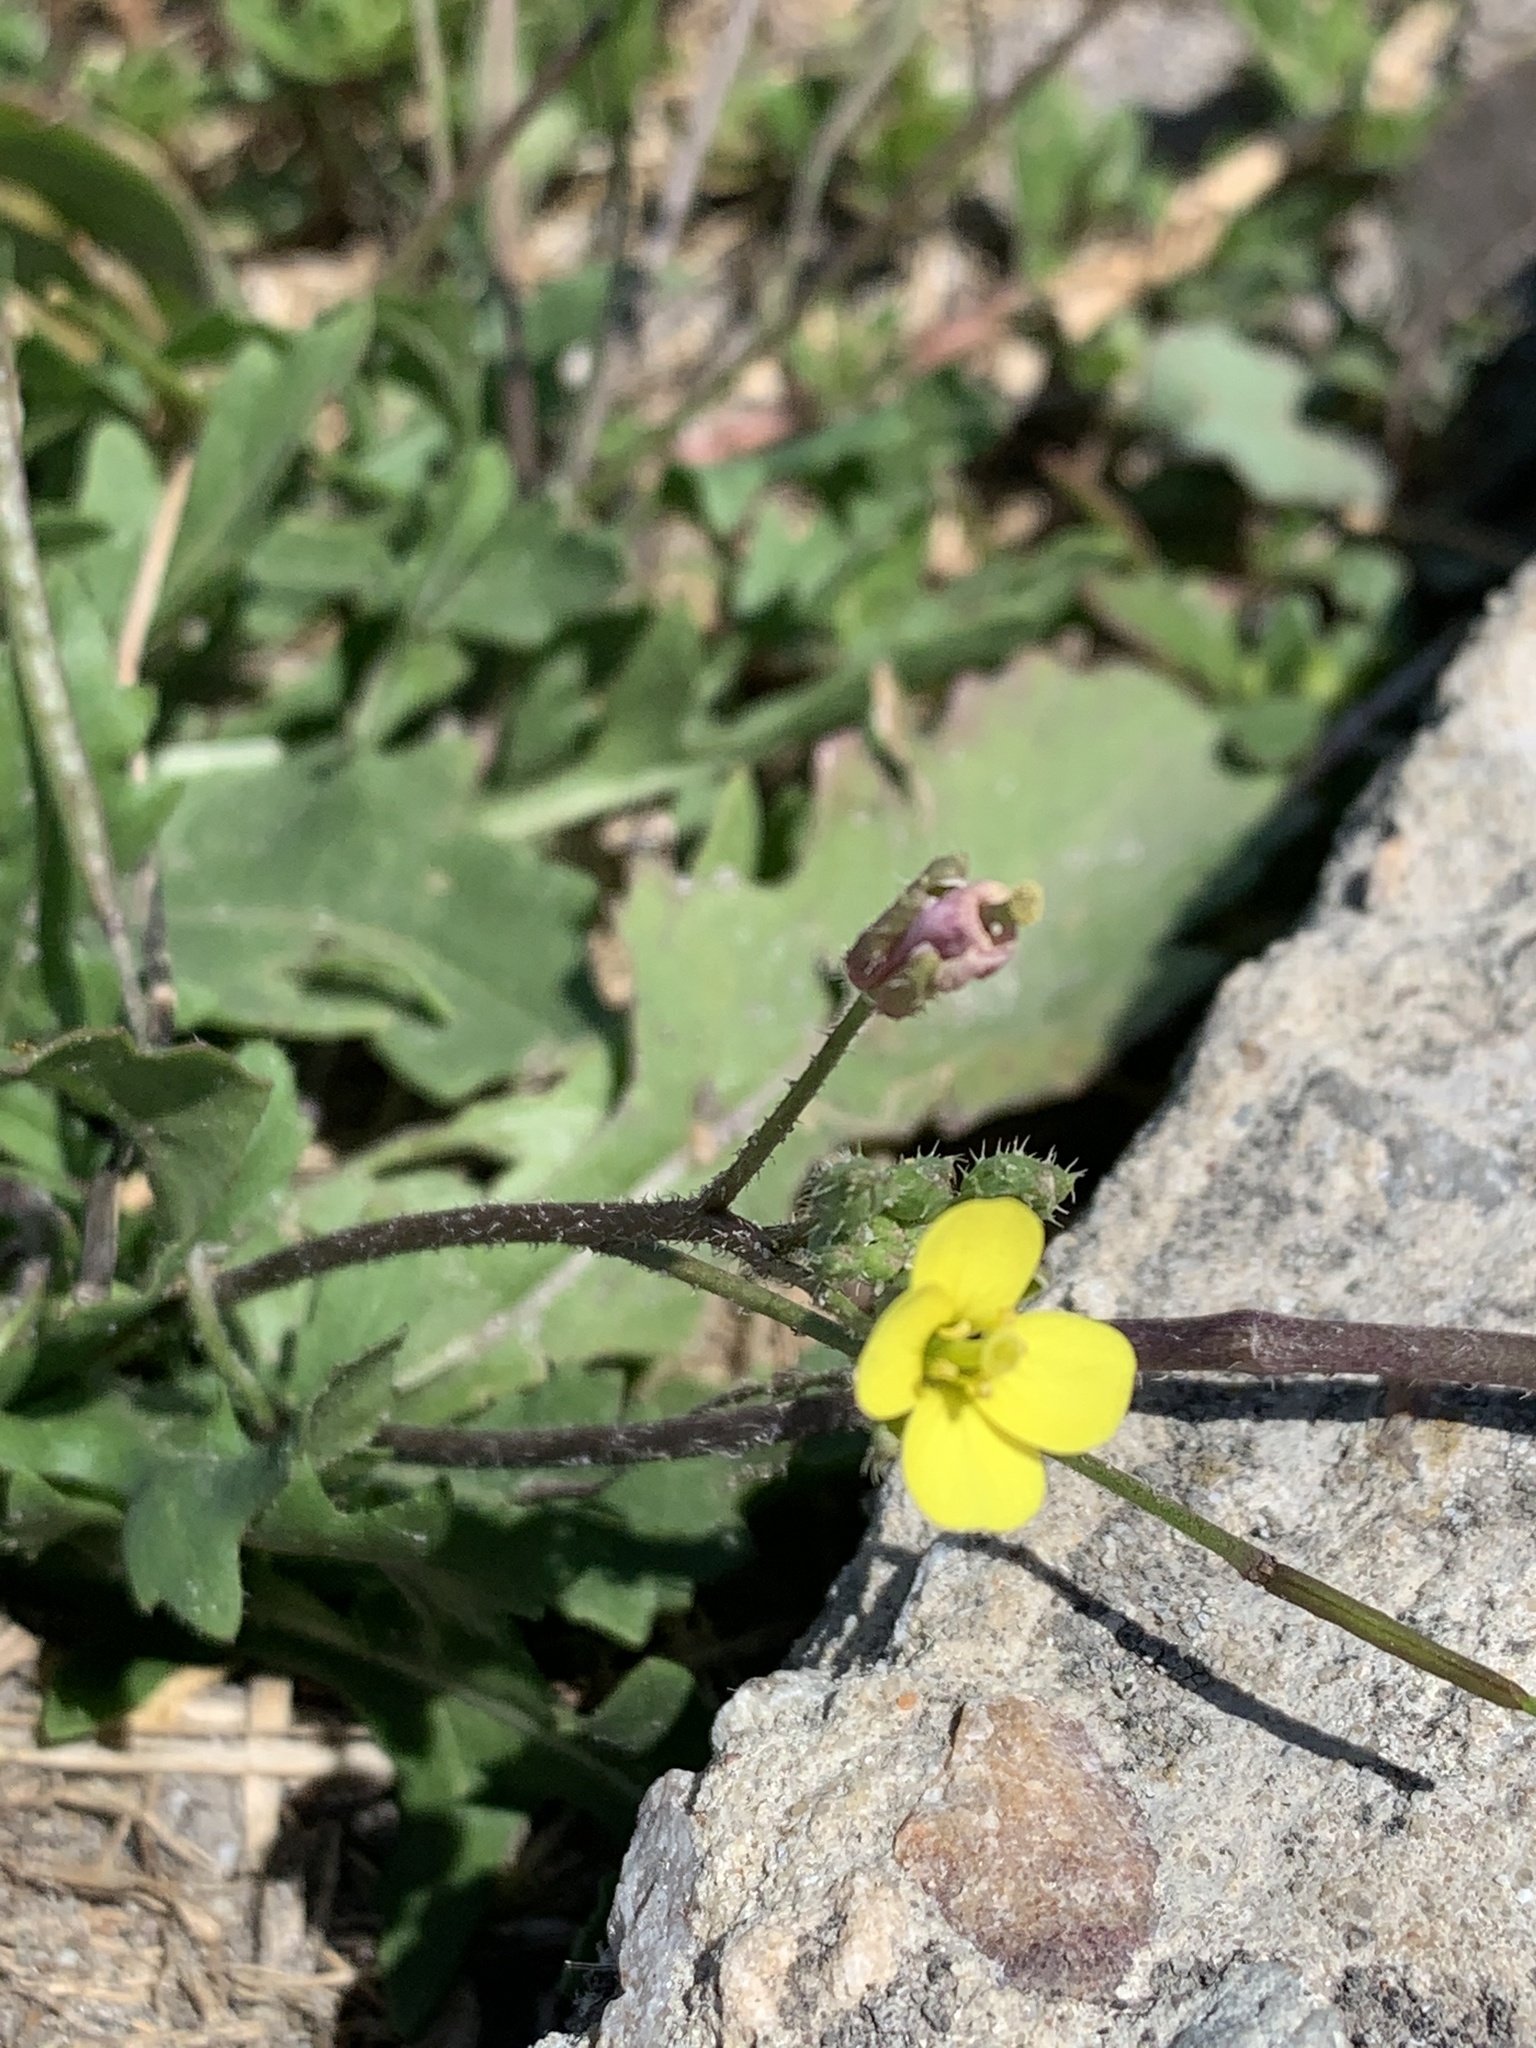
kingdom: Plantae
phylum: Tracheophyta
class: Magnoliopsida
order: Brassicales
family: Brassicaceae
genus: Diplotaxis
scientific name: Diplotaxis muralis
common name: Annual wall-rocket
